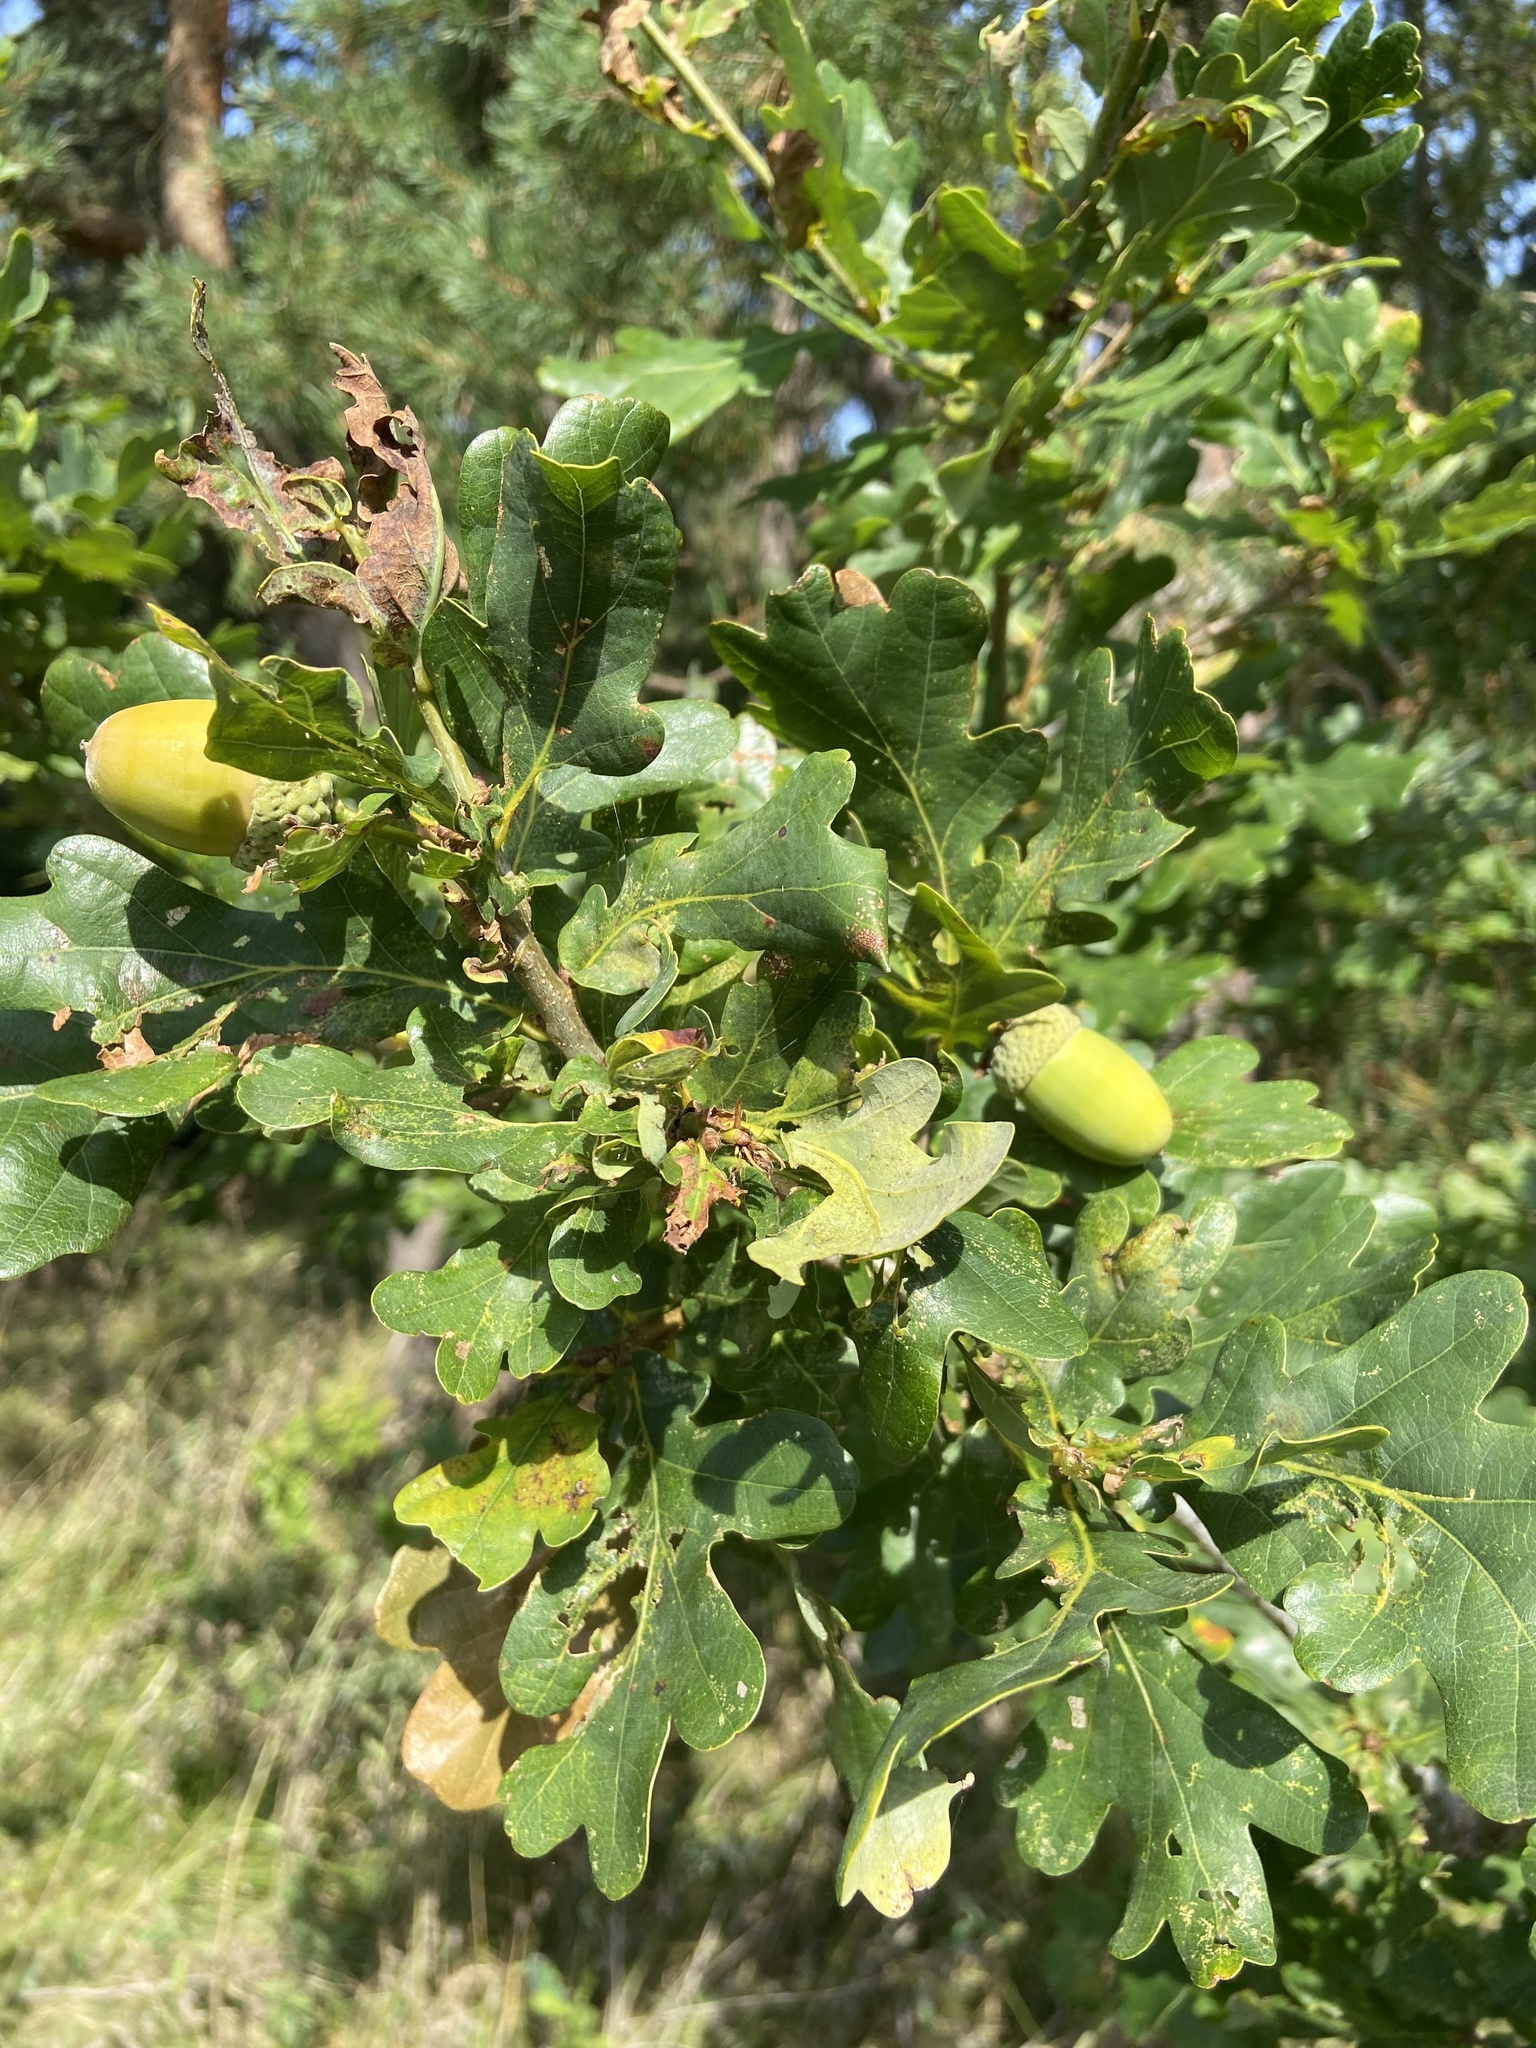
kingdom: Plantae
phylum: Tracheophyta
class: Magnoliopsida
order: Fagales
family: Fagaceae
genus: Quercus
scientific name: Quercus robur
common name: Pedunculate oak
